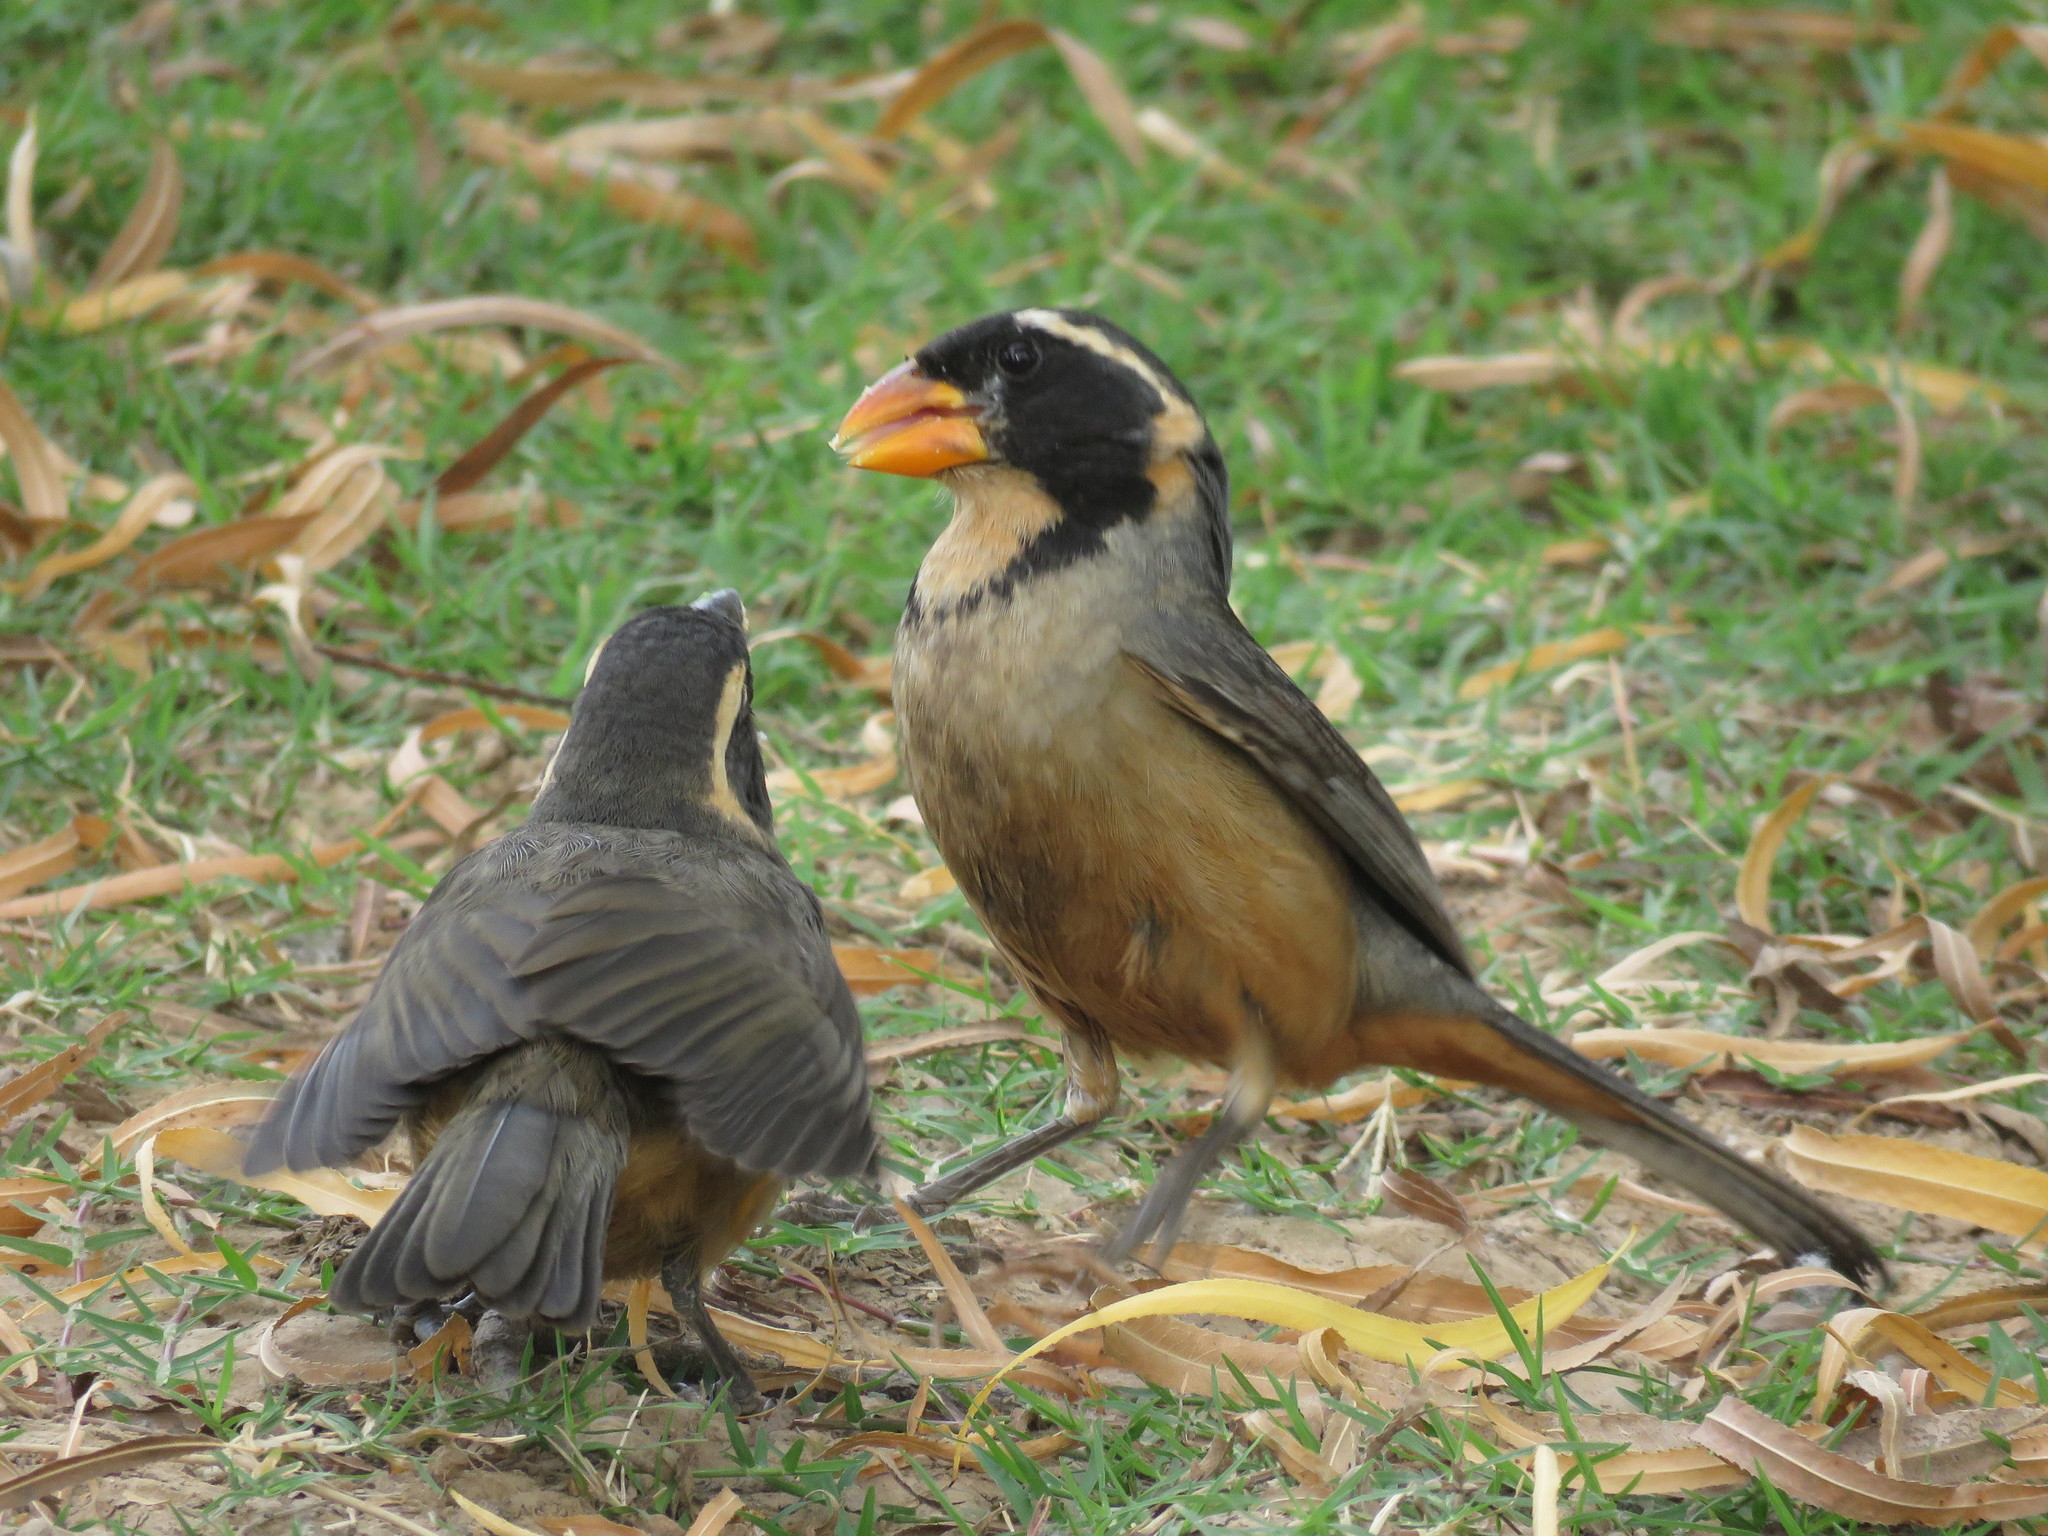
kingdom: Animalia
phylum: Chordata
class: Aves
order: Passeriformes
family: Thraupidae
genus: Saltator
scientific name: Saltator aurantiirostris
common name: Golden-billed saltator
